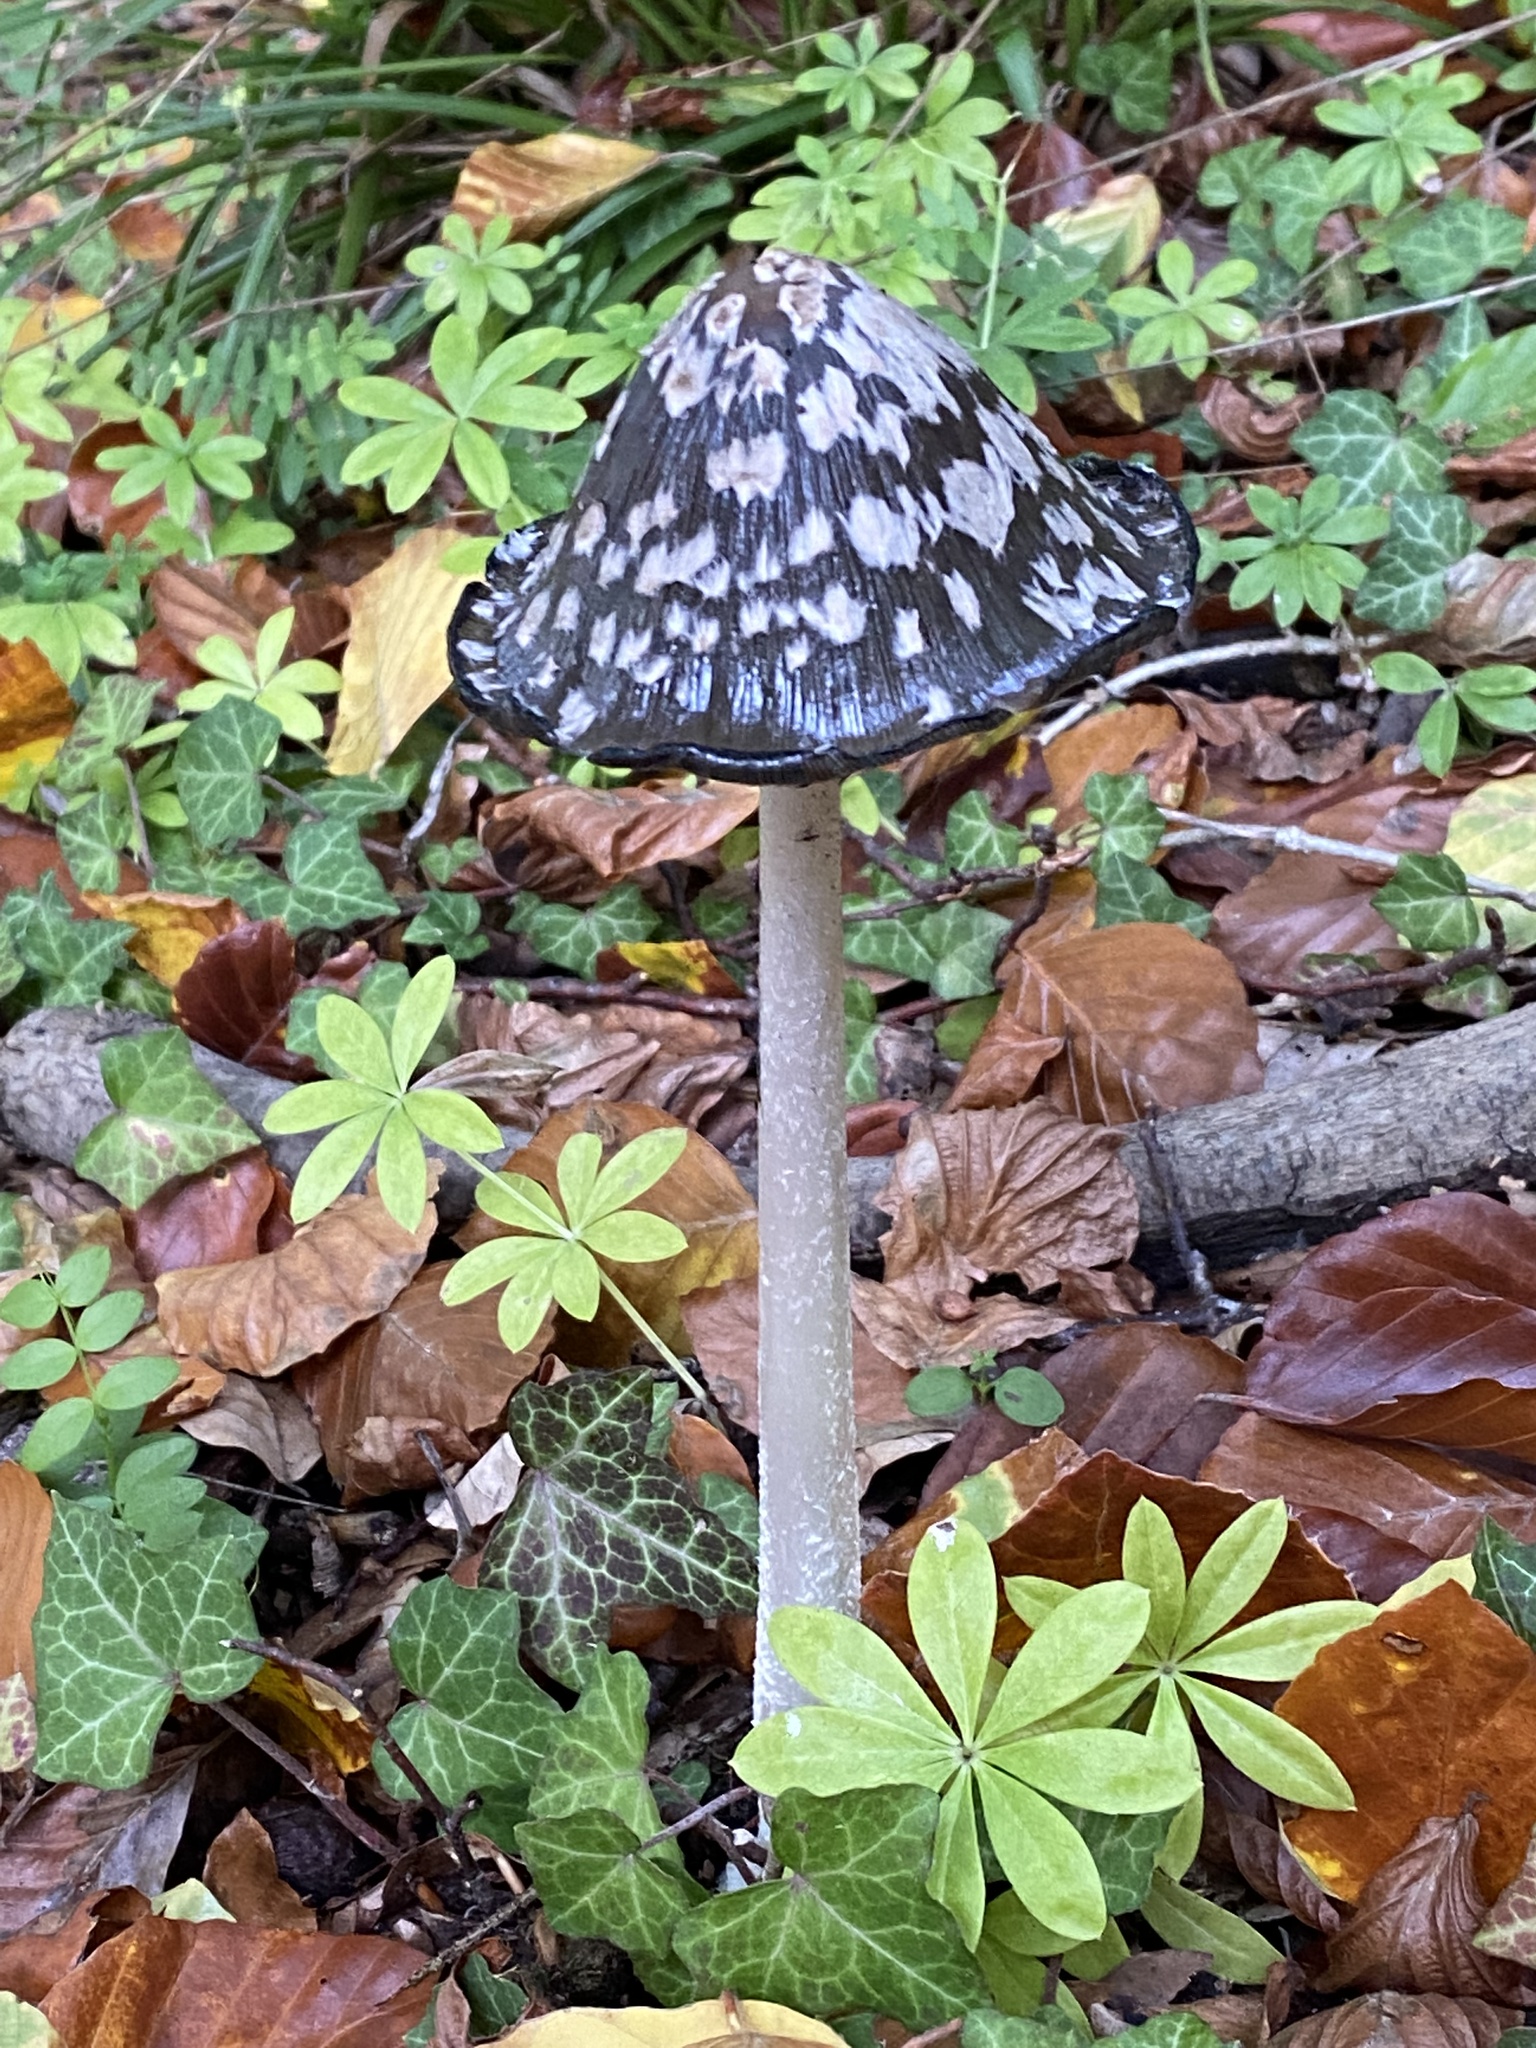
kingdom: Fungi
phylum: Basidiomycota
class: Agaricomycetes
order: Agaricales
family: Psathyrellaceae
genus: Coprinopsis
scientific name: Coprinopsis picacea
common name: Magpie inkcap
